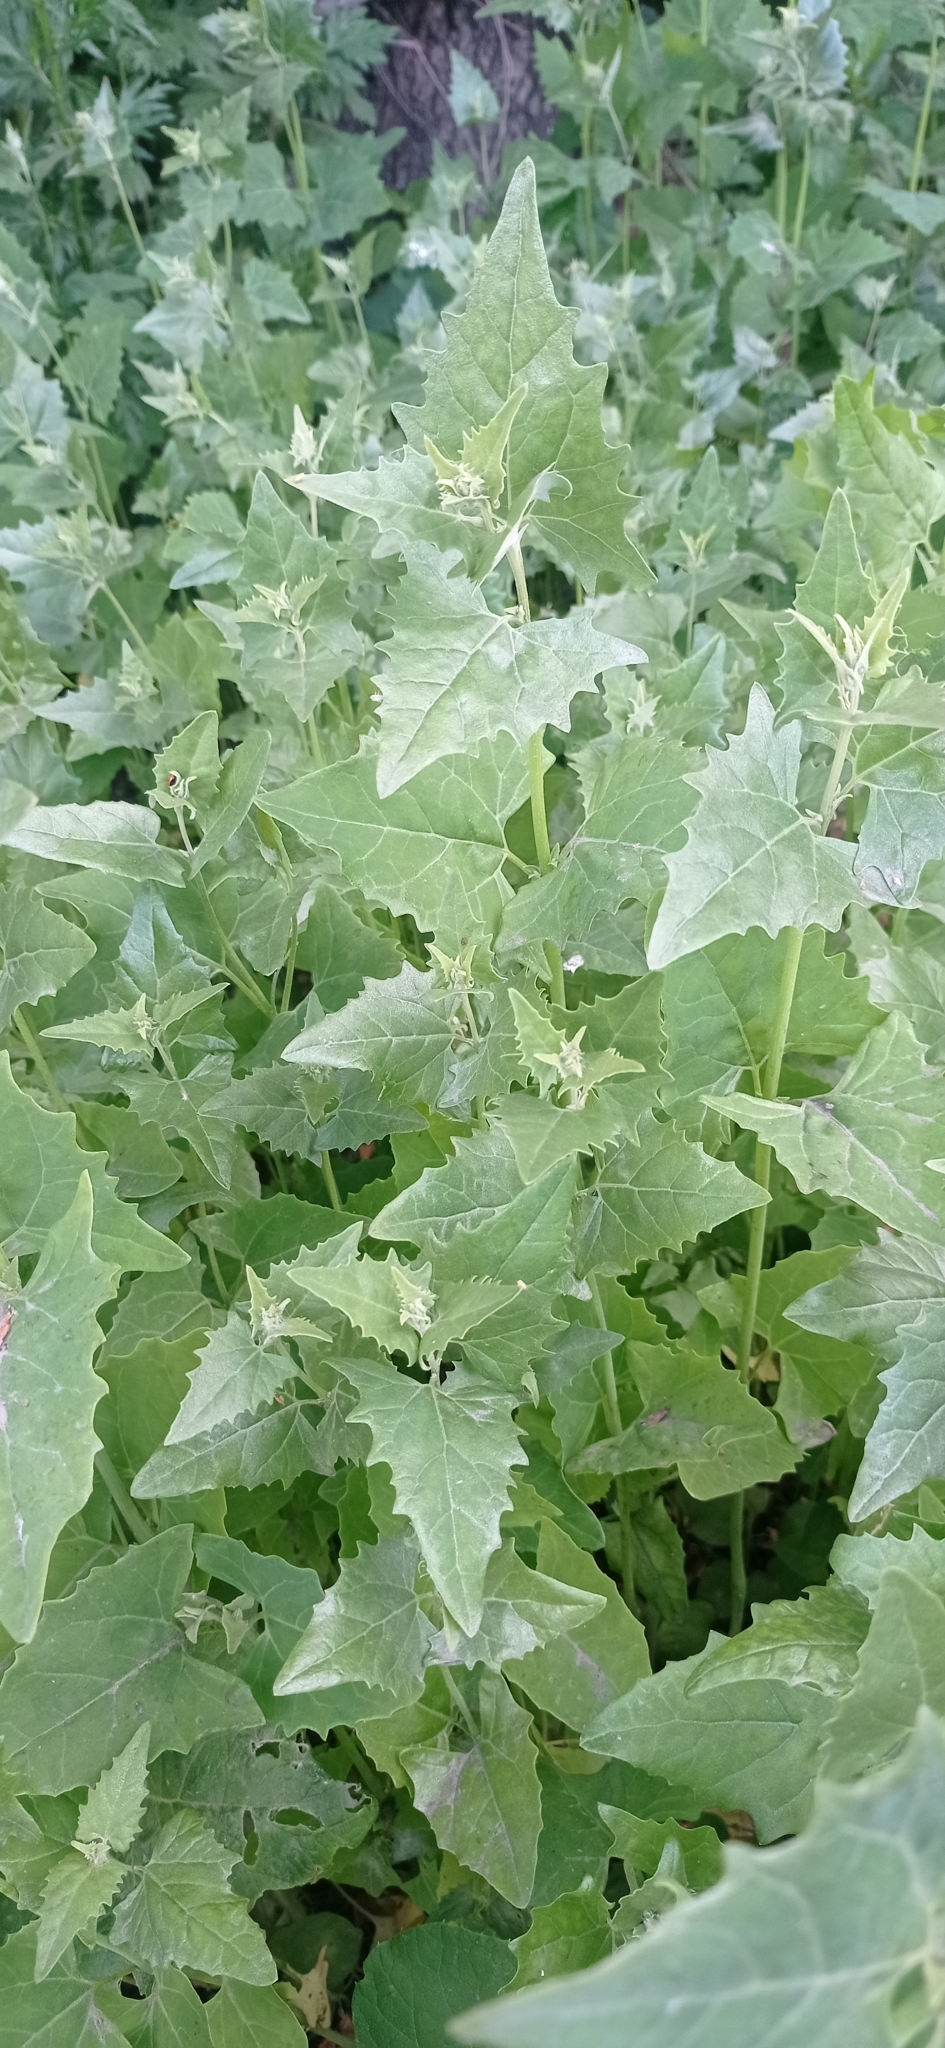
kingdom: Plantae
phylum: Tracheophyta
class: Magnoliopsida
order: Caryophyllales
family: Amaranthaceae
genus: Atriplex
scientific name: Atriplex sagittata
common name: Purple orache
